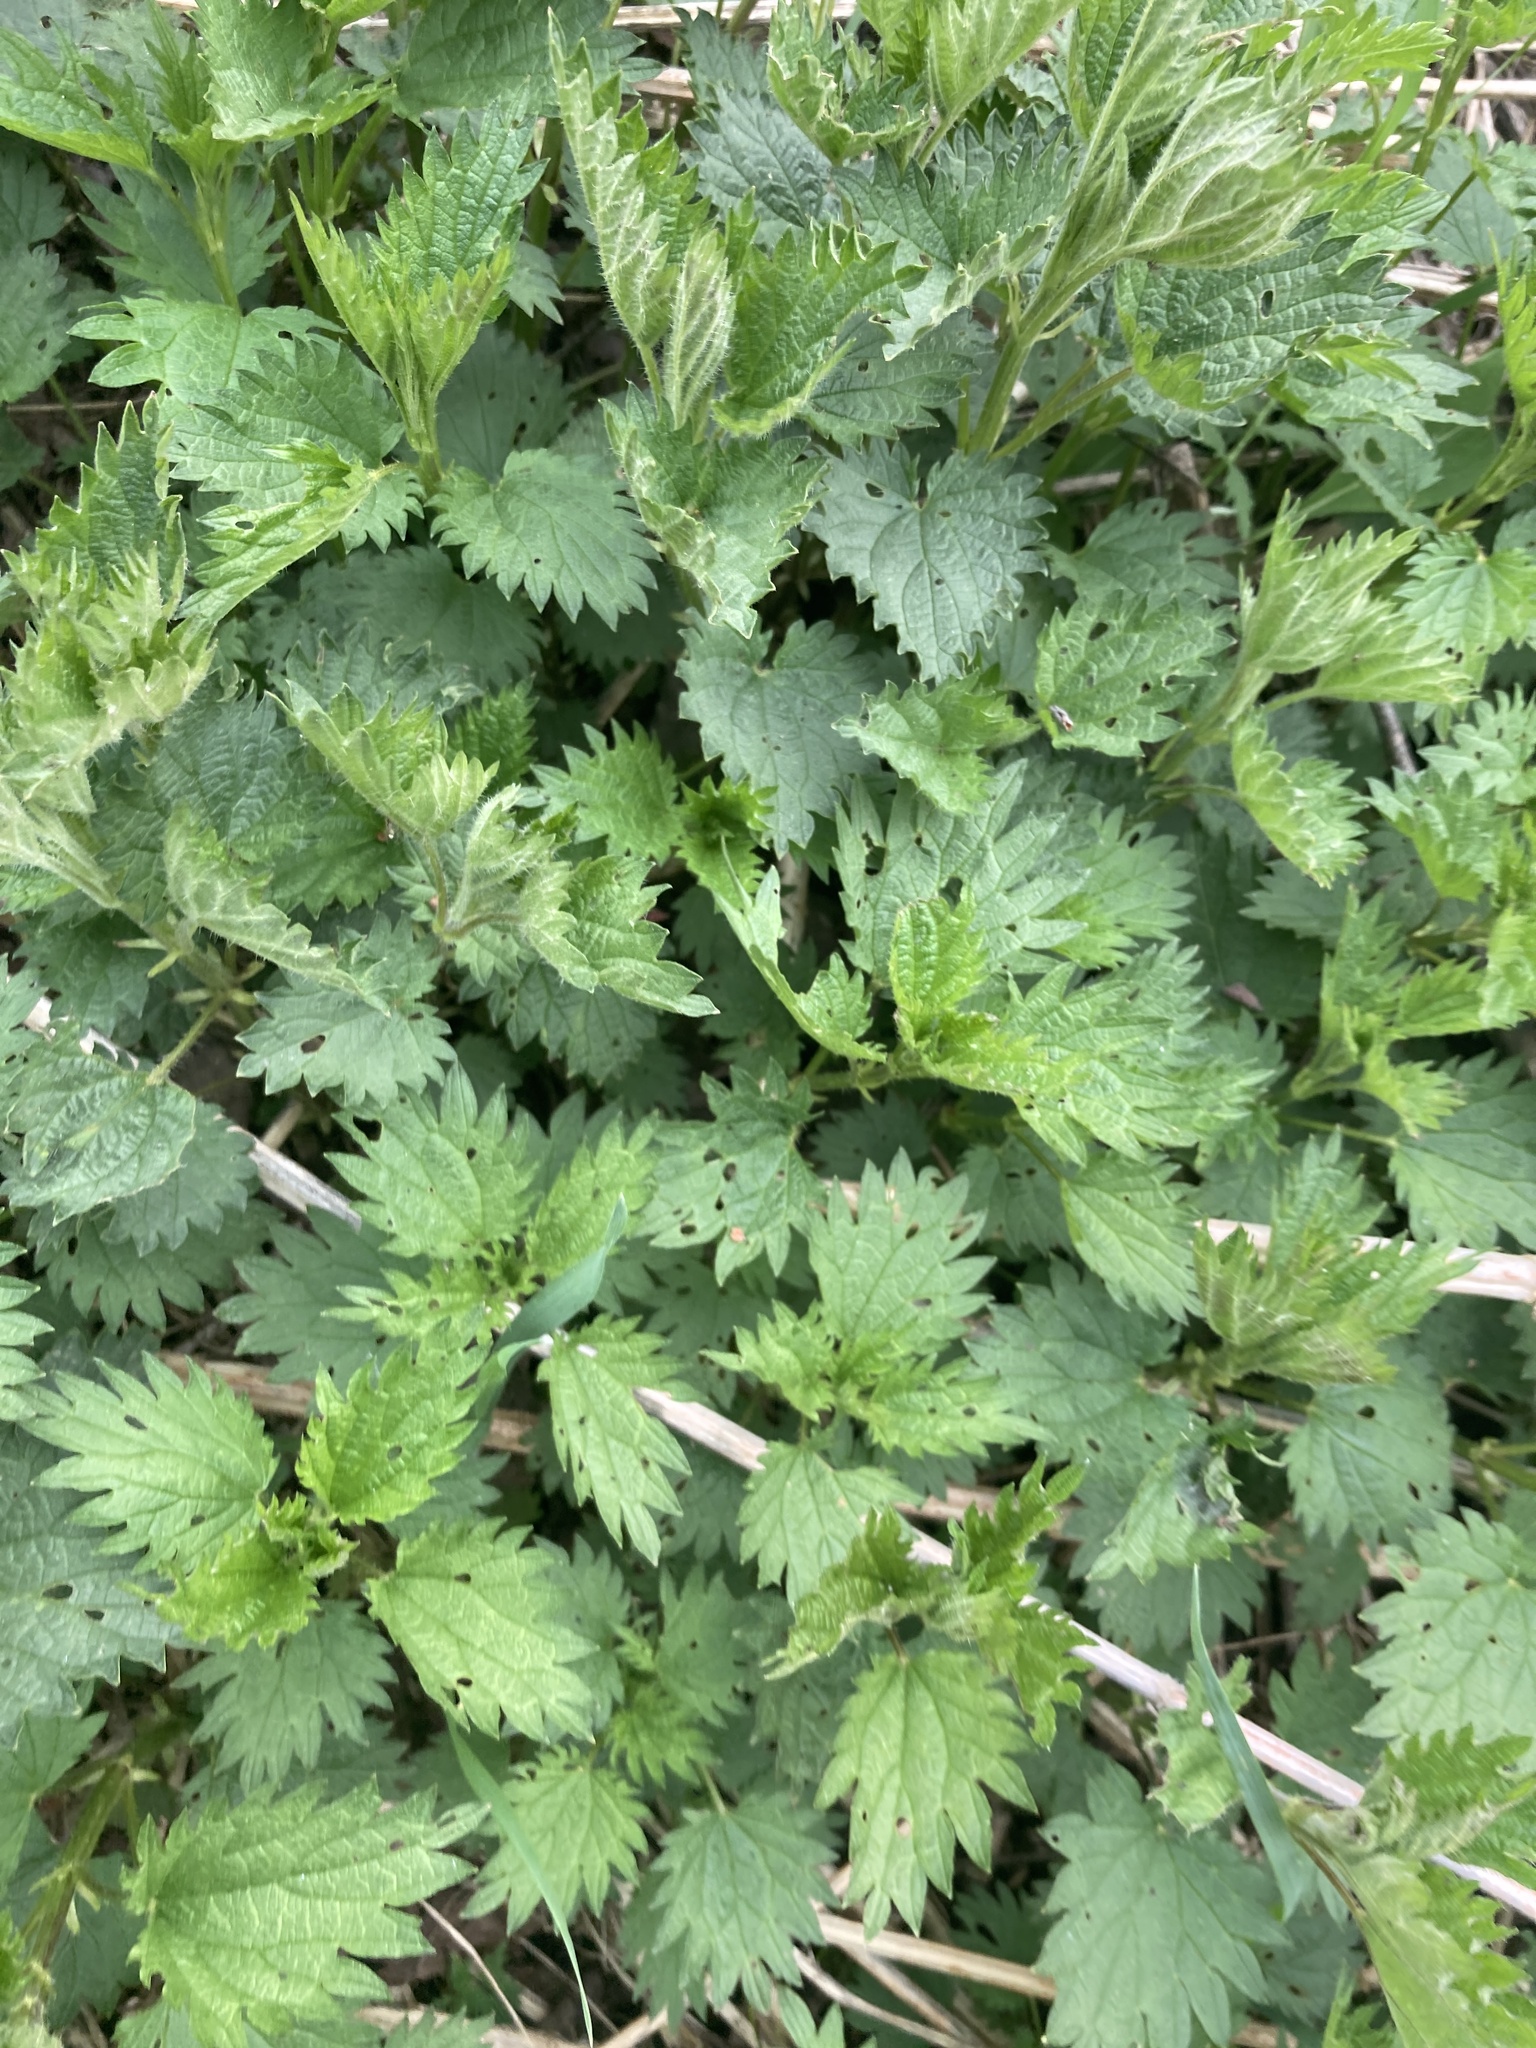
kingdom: Plantae
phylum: Tracheophyta
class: Magnoliopsida
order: Rosales
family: Urticaceae
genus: Urtica
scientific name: Urtica dioica
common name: Common nettle
